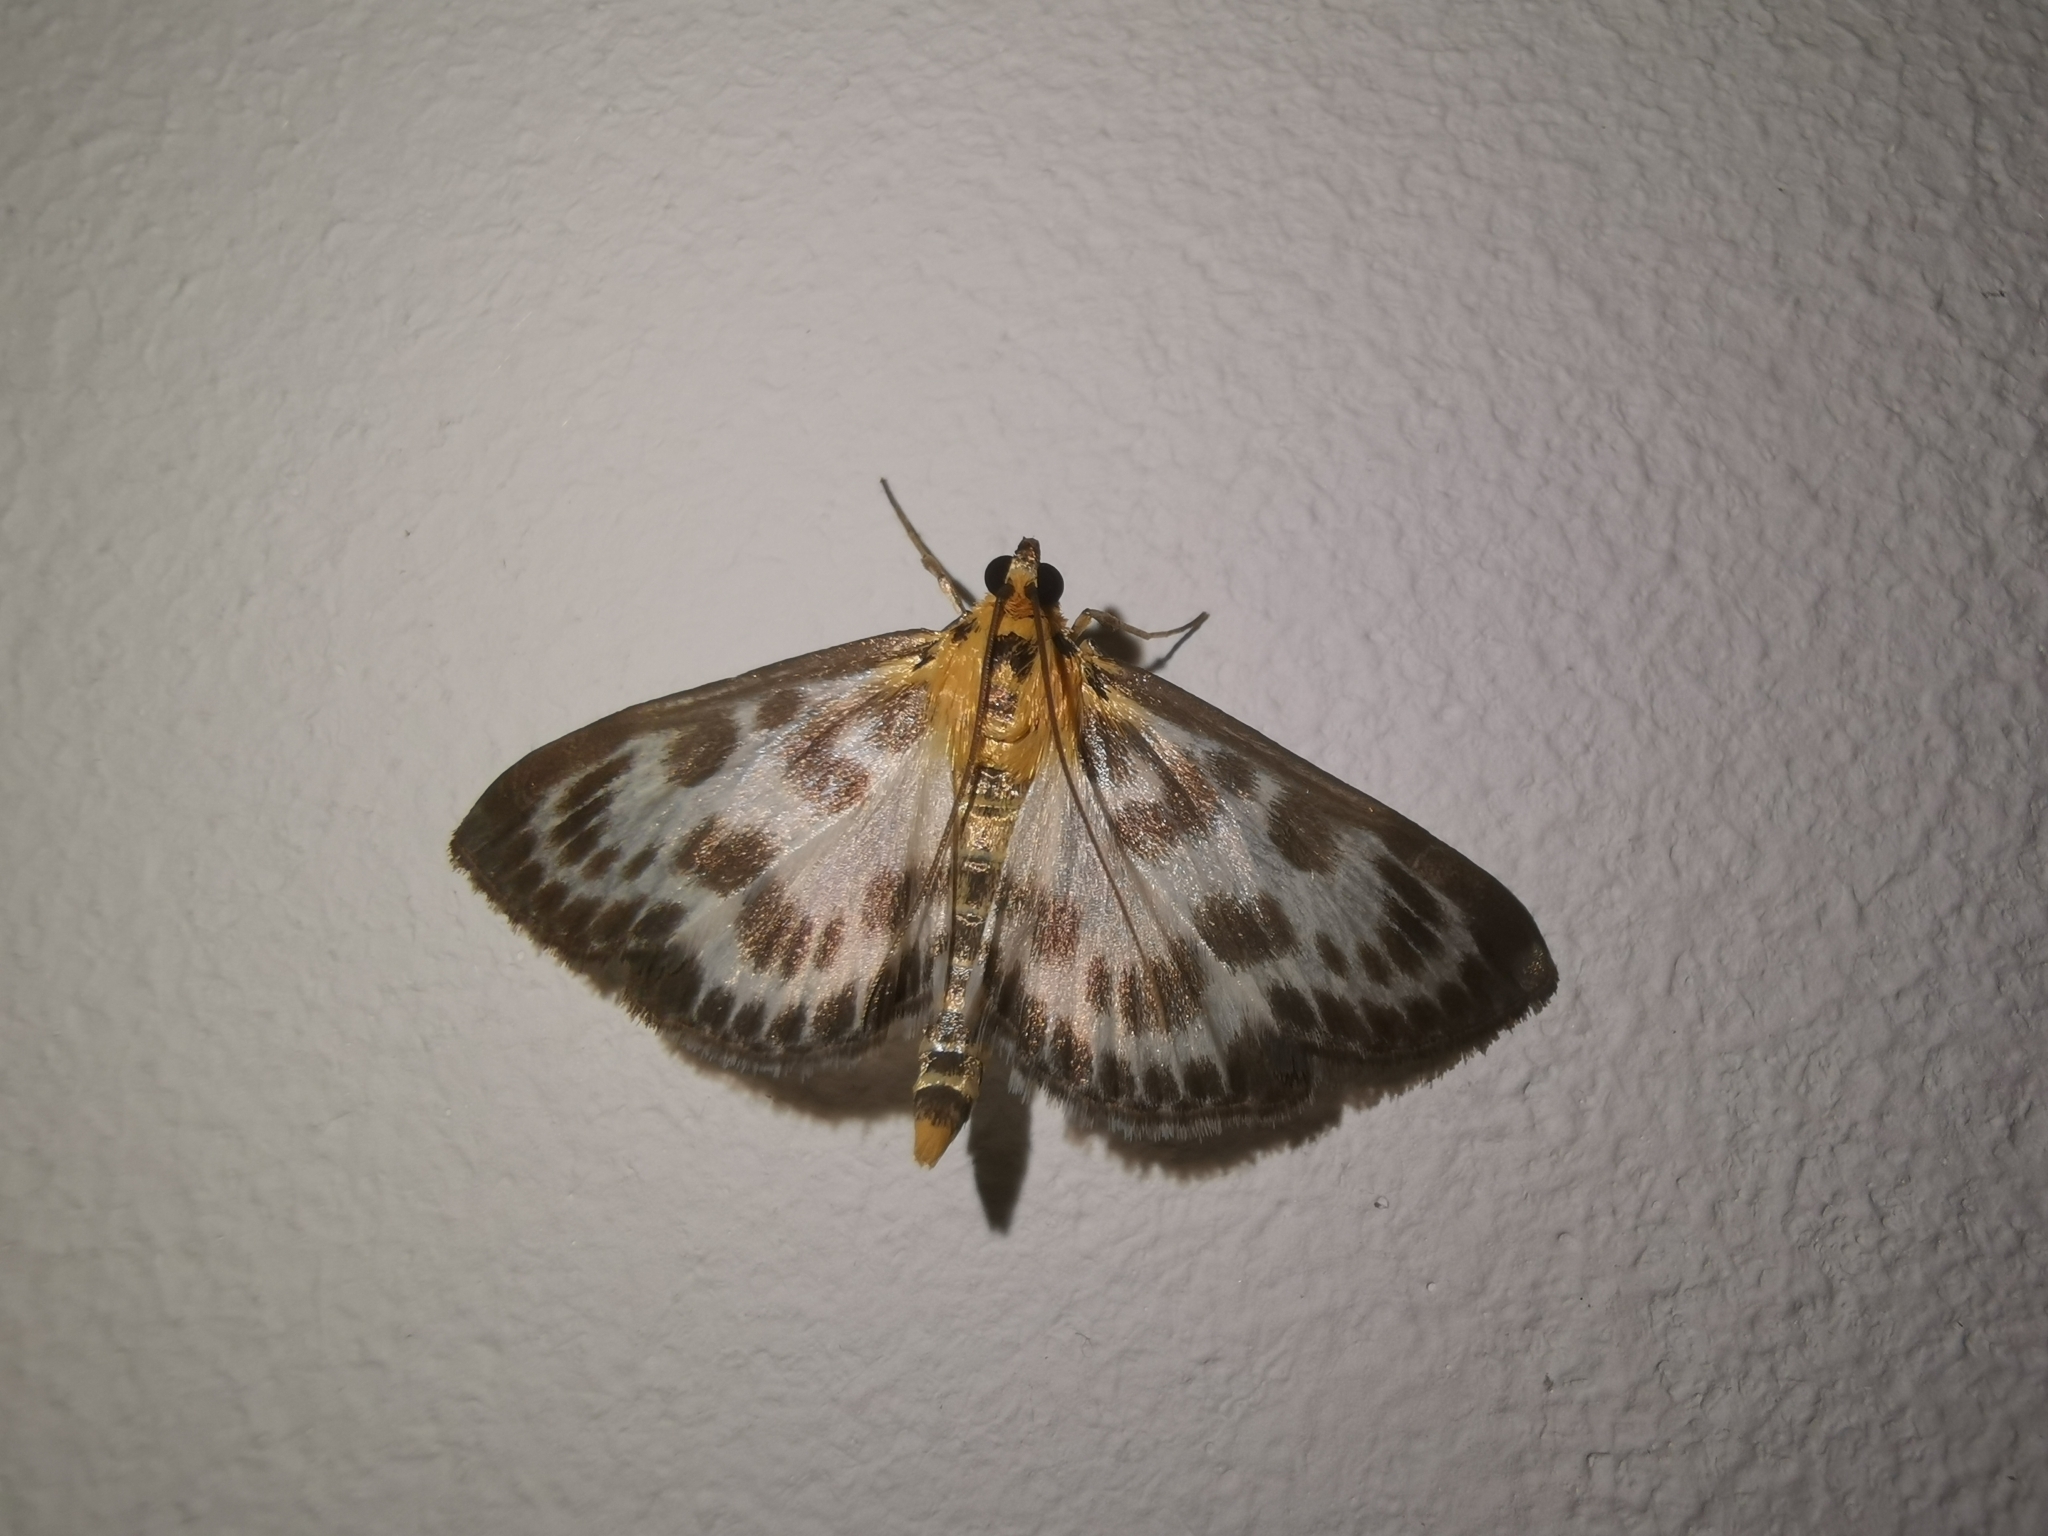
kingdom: Animalia
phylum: Arthropoda
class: Insecta
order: Lepidoptera
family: Crambidae
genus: Anania
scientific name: Anania hortulata
